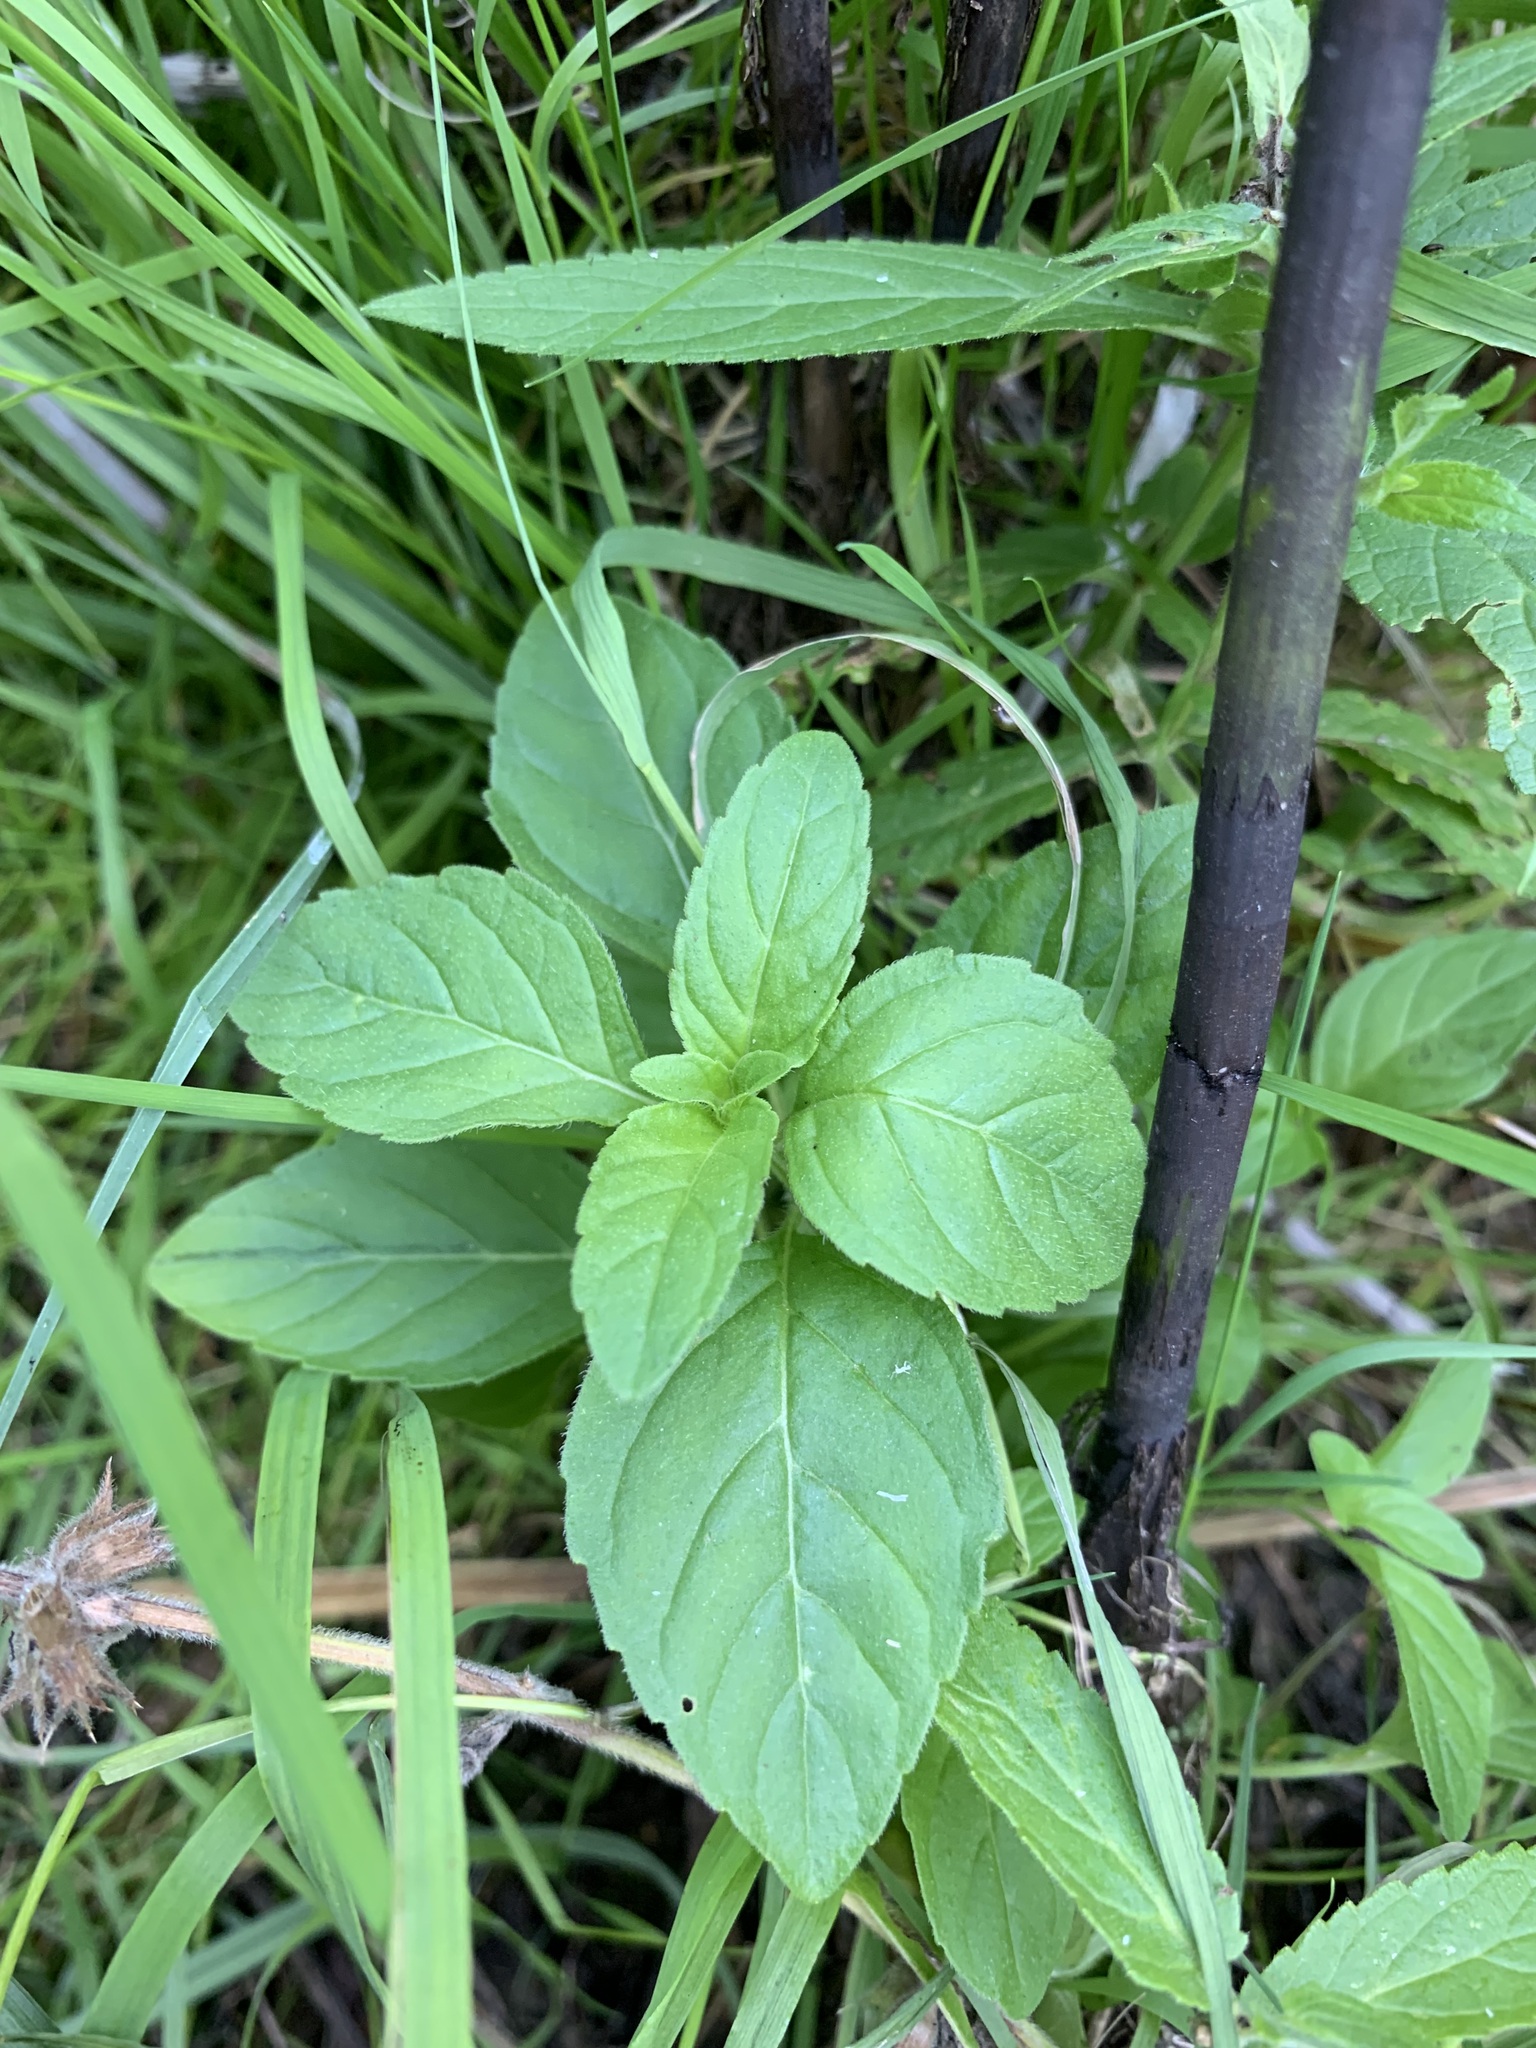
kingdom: Plantae
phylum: Tracheophyta
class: Magnoliopsida
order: Lamiales
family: Lamiaceae
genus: Mentha
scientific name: Mentha arvensis
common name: Corn mint
